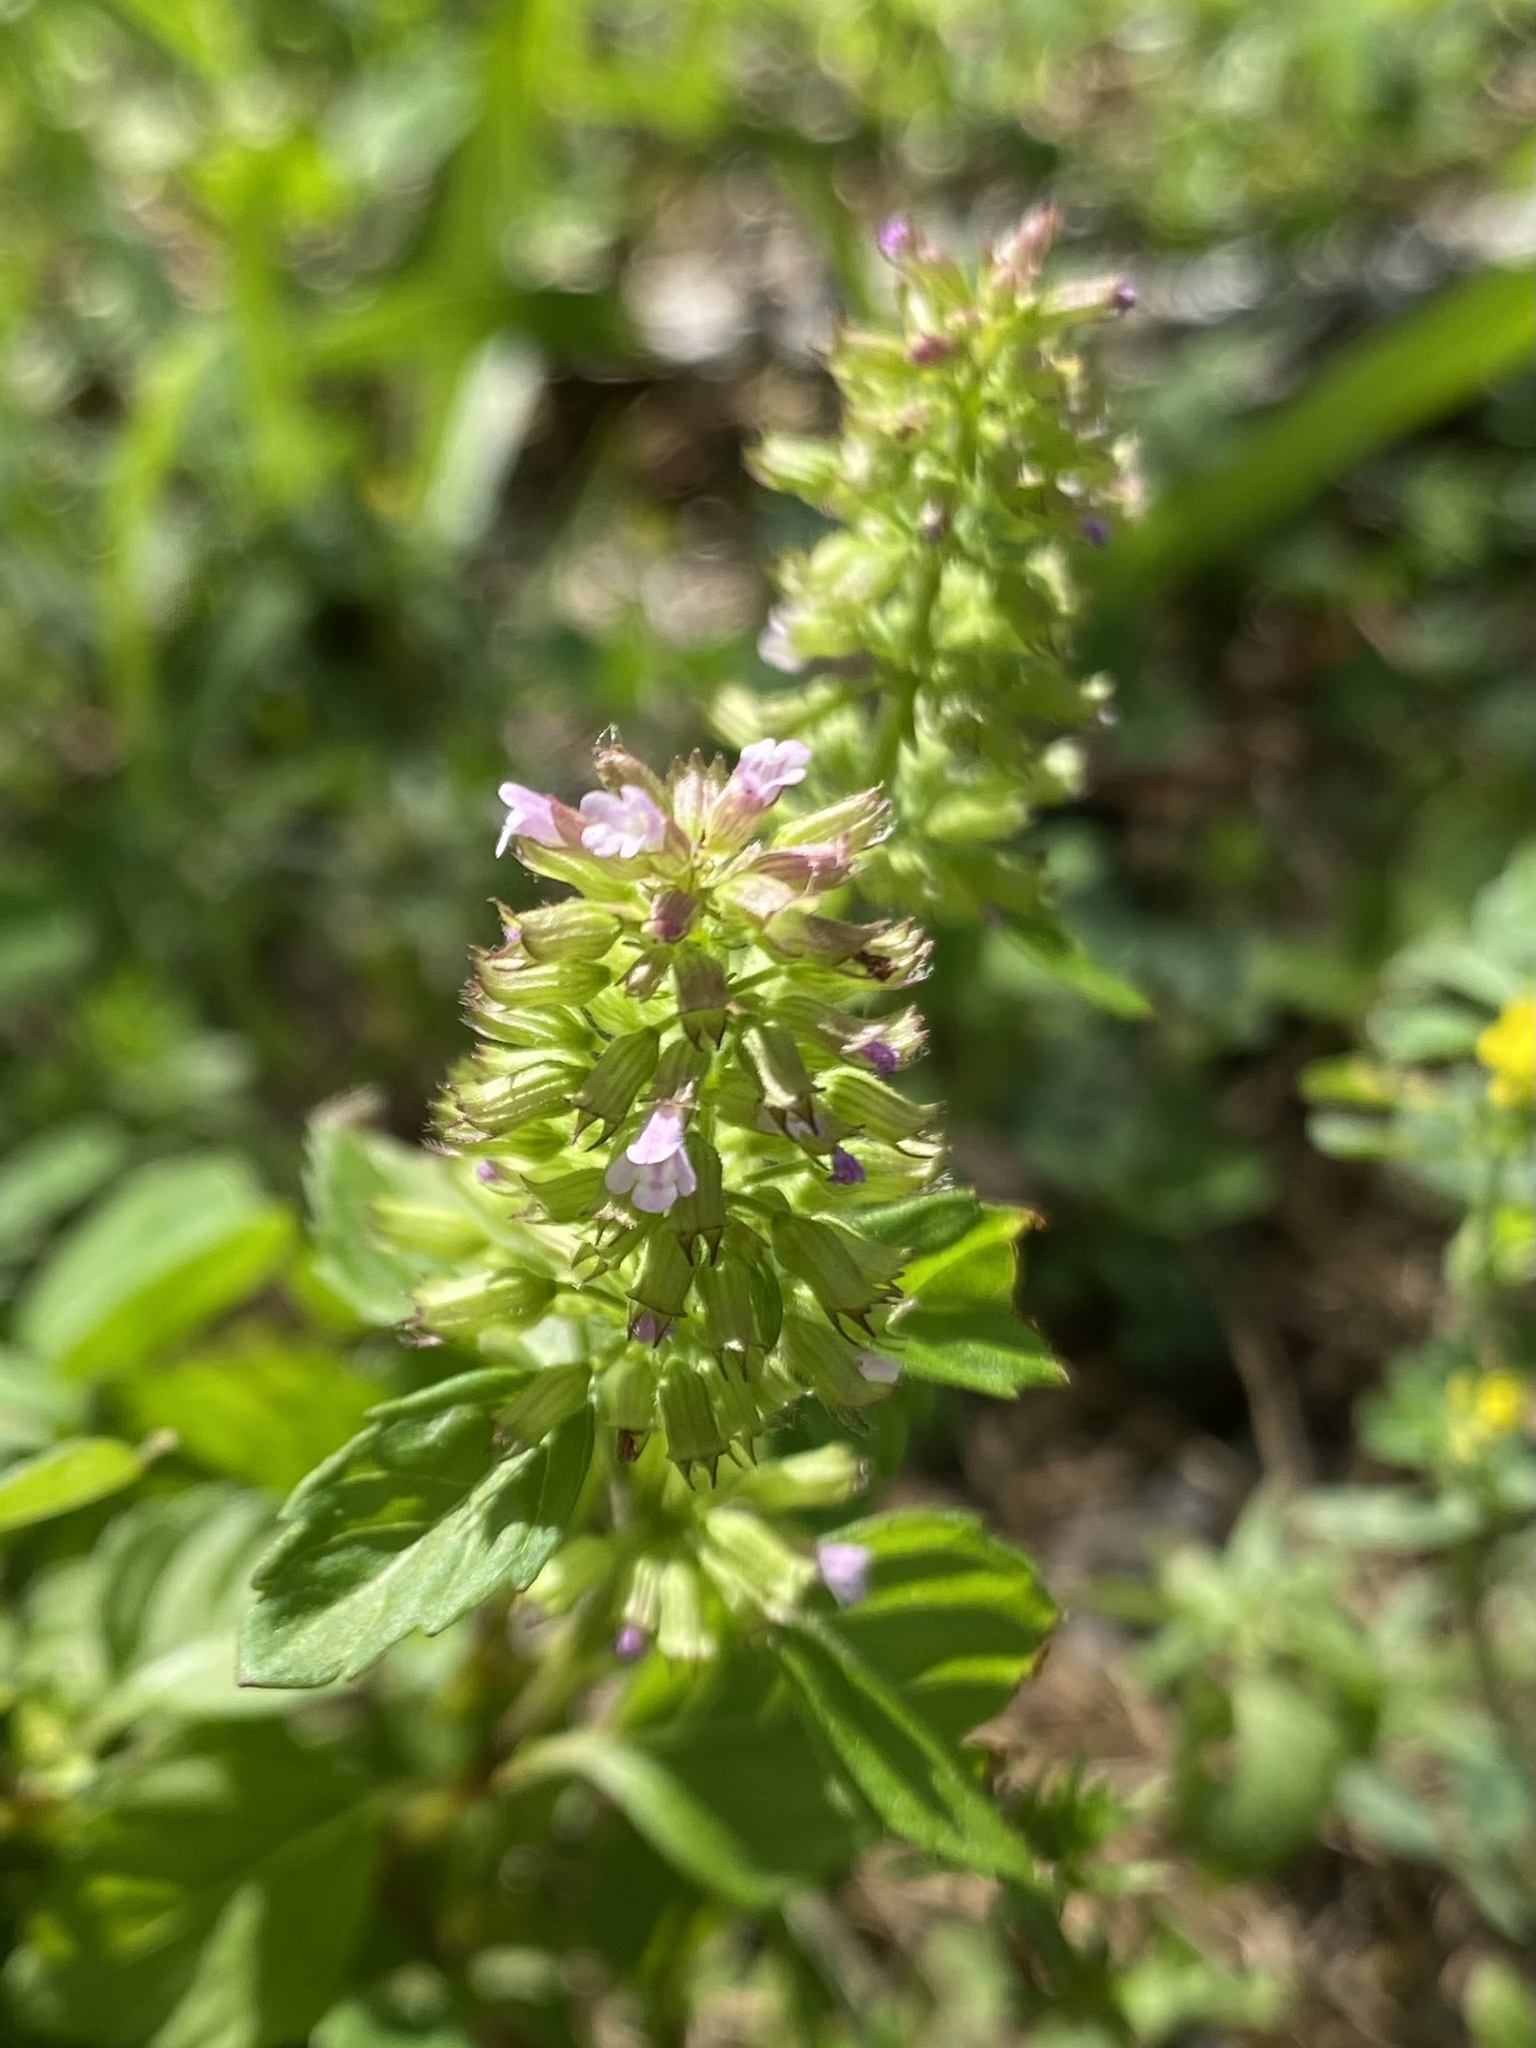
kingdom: Plantae
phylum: Tracheophyta
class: Magnoliopsida
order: Lamiales
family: Lamiaceae
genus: Clinopodium
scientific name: Clinopodium gracile
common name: Slender wild basil
